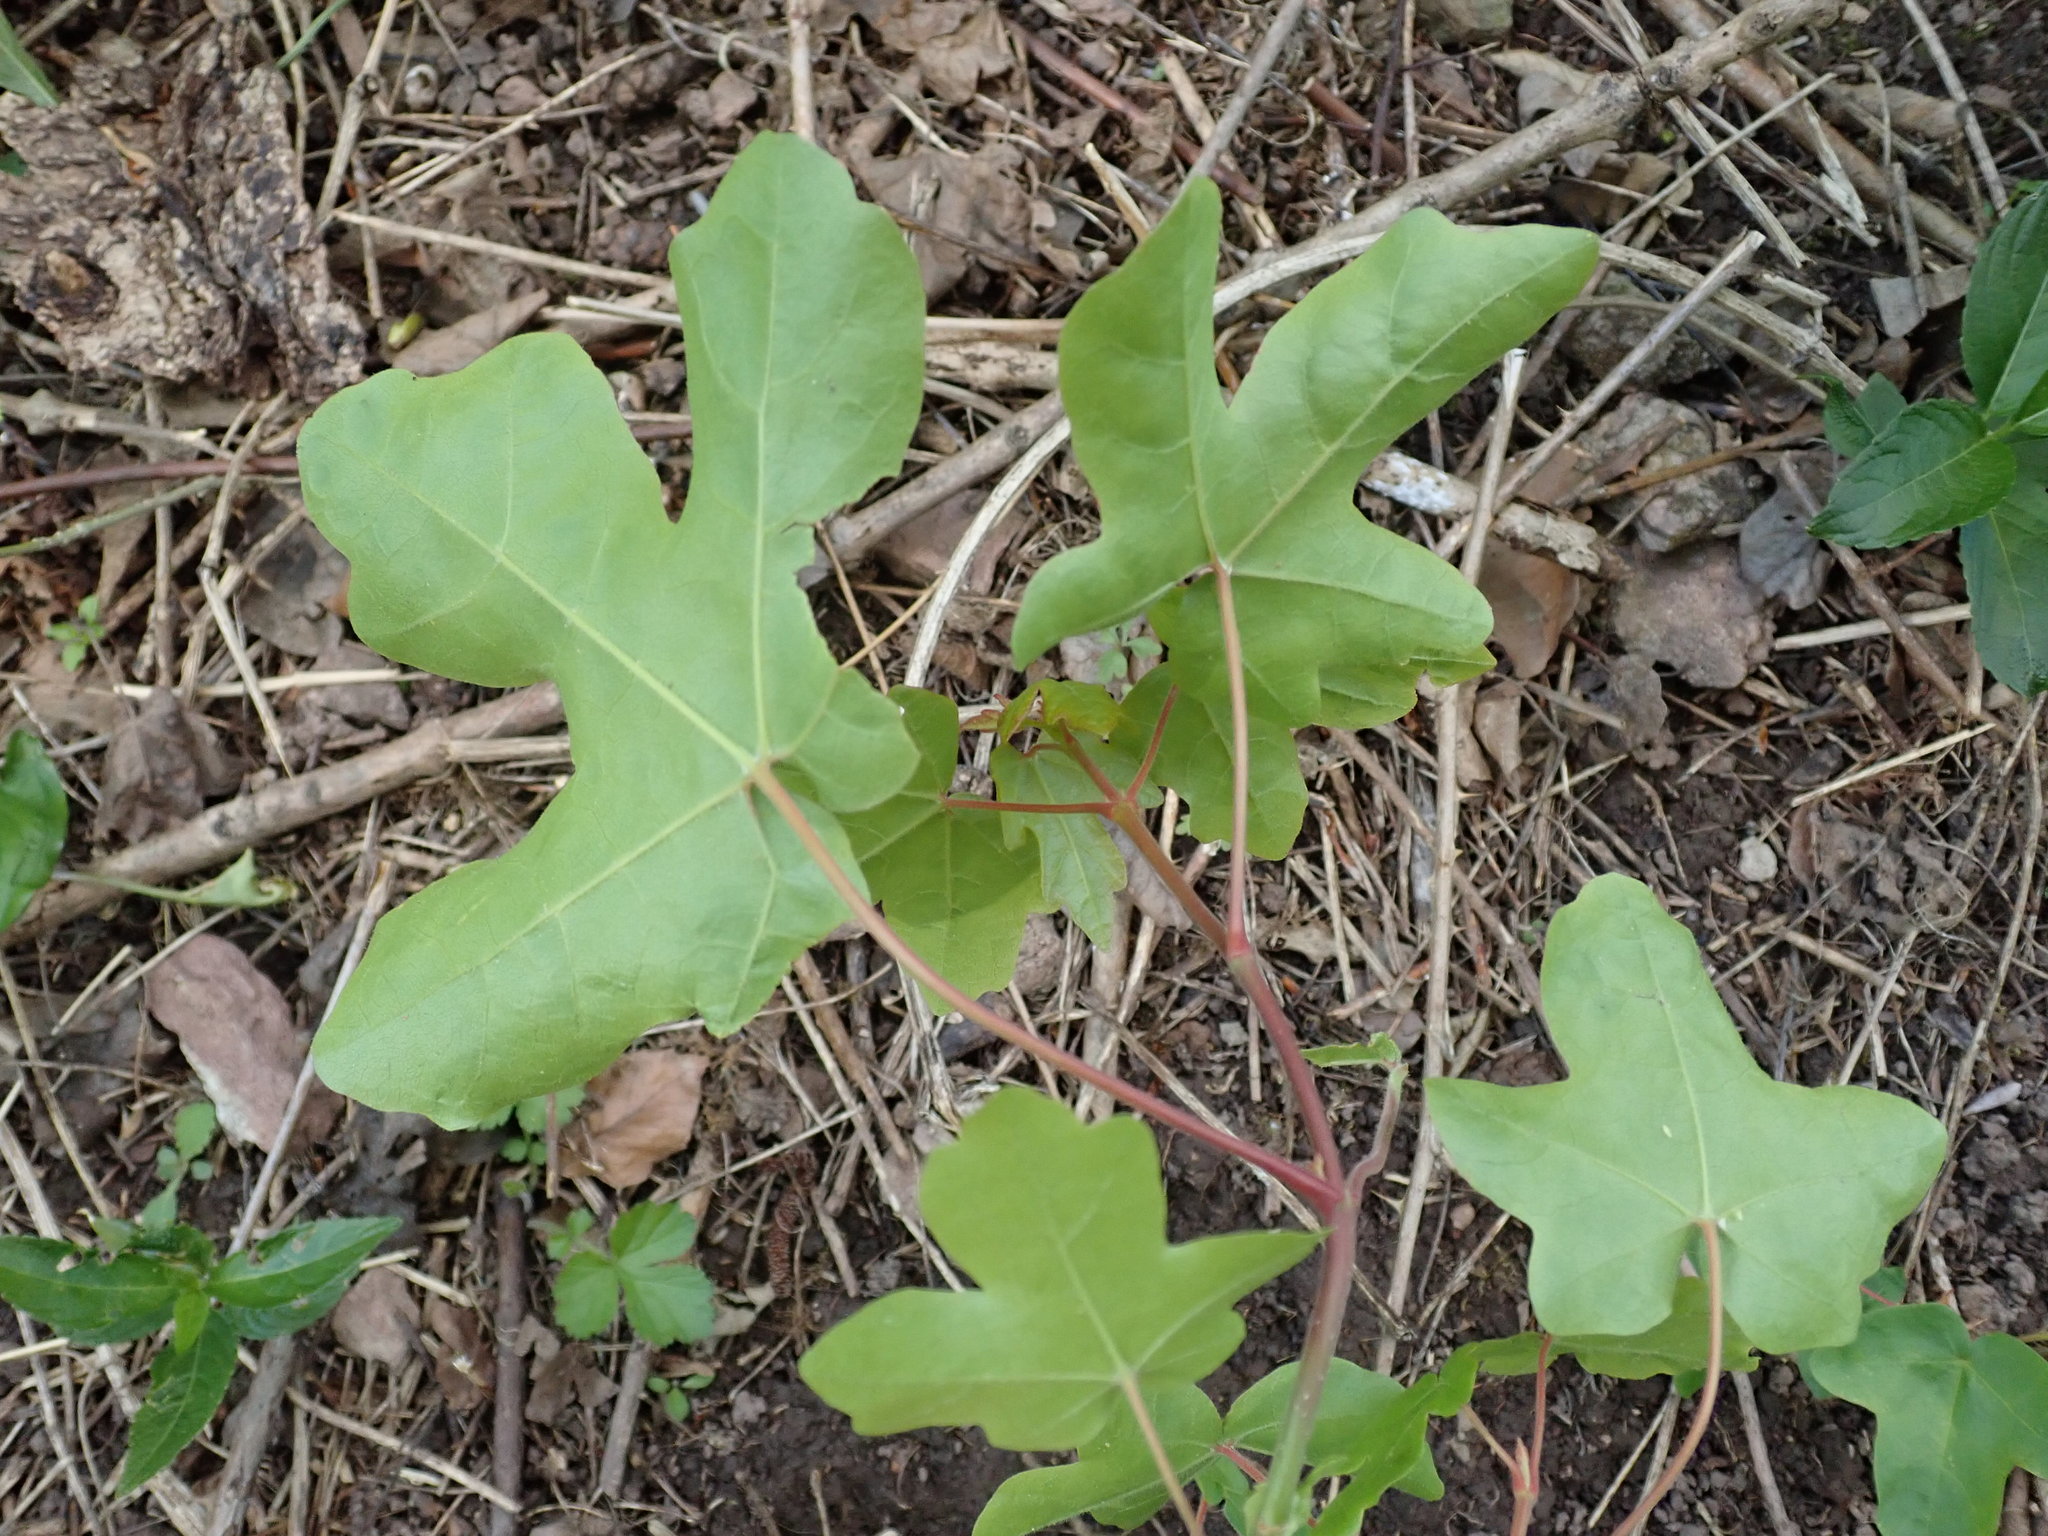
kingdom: Plantae
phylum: Tracheophyta
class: Magnoliopsida
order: Sapindales
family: Sapindaceae
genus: Acer
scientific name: Acer campestre
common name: Field maple
